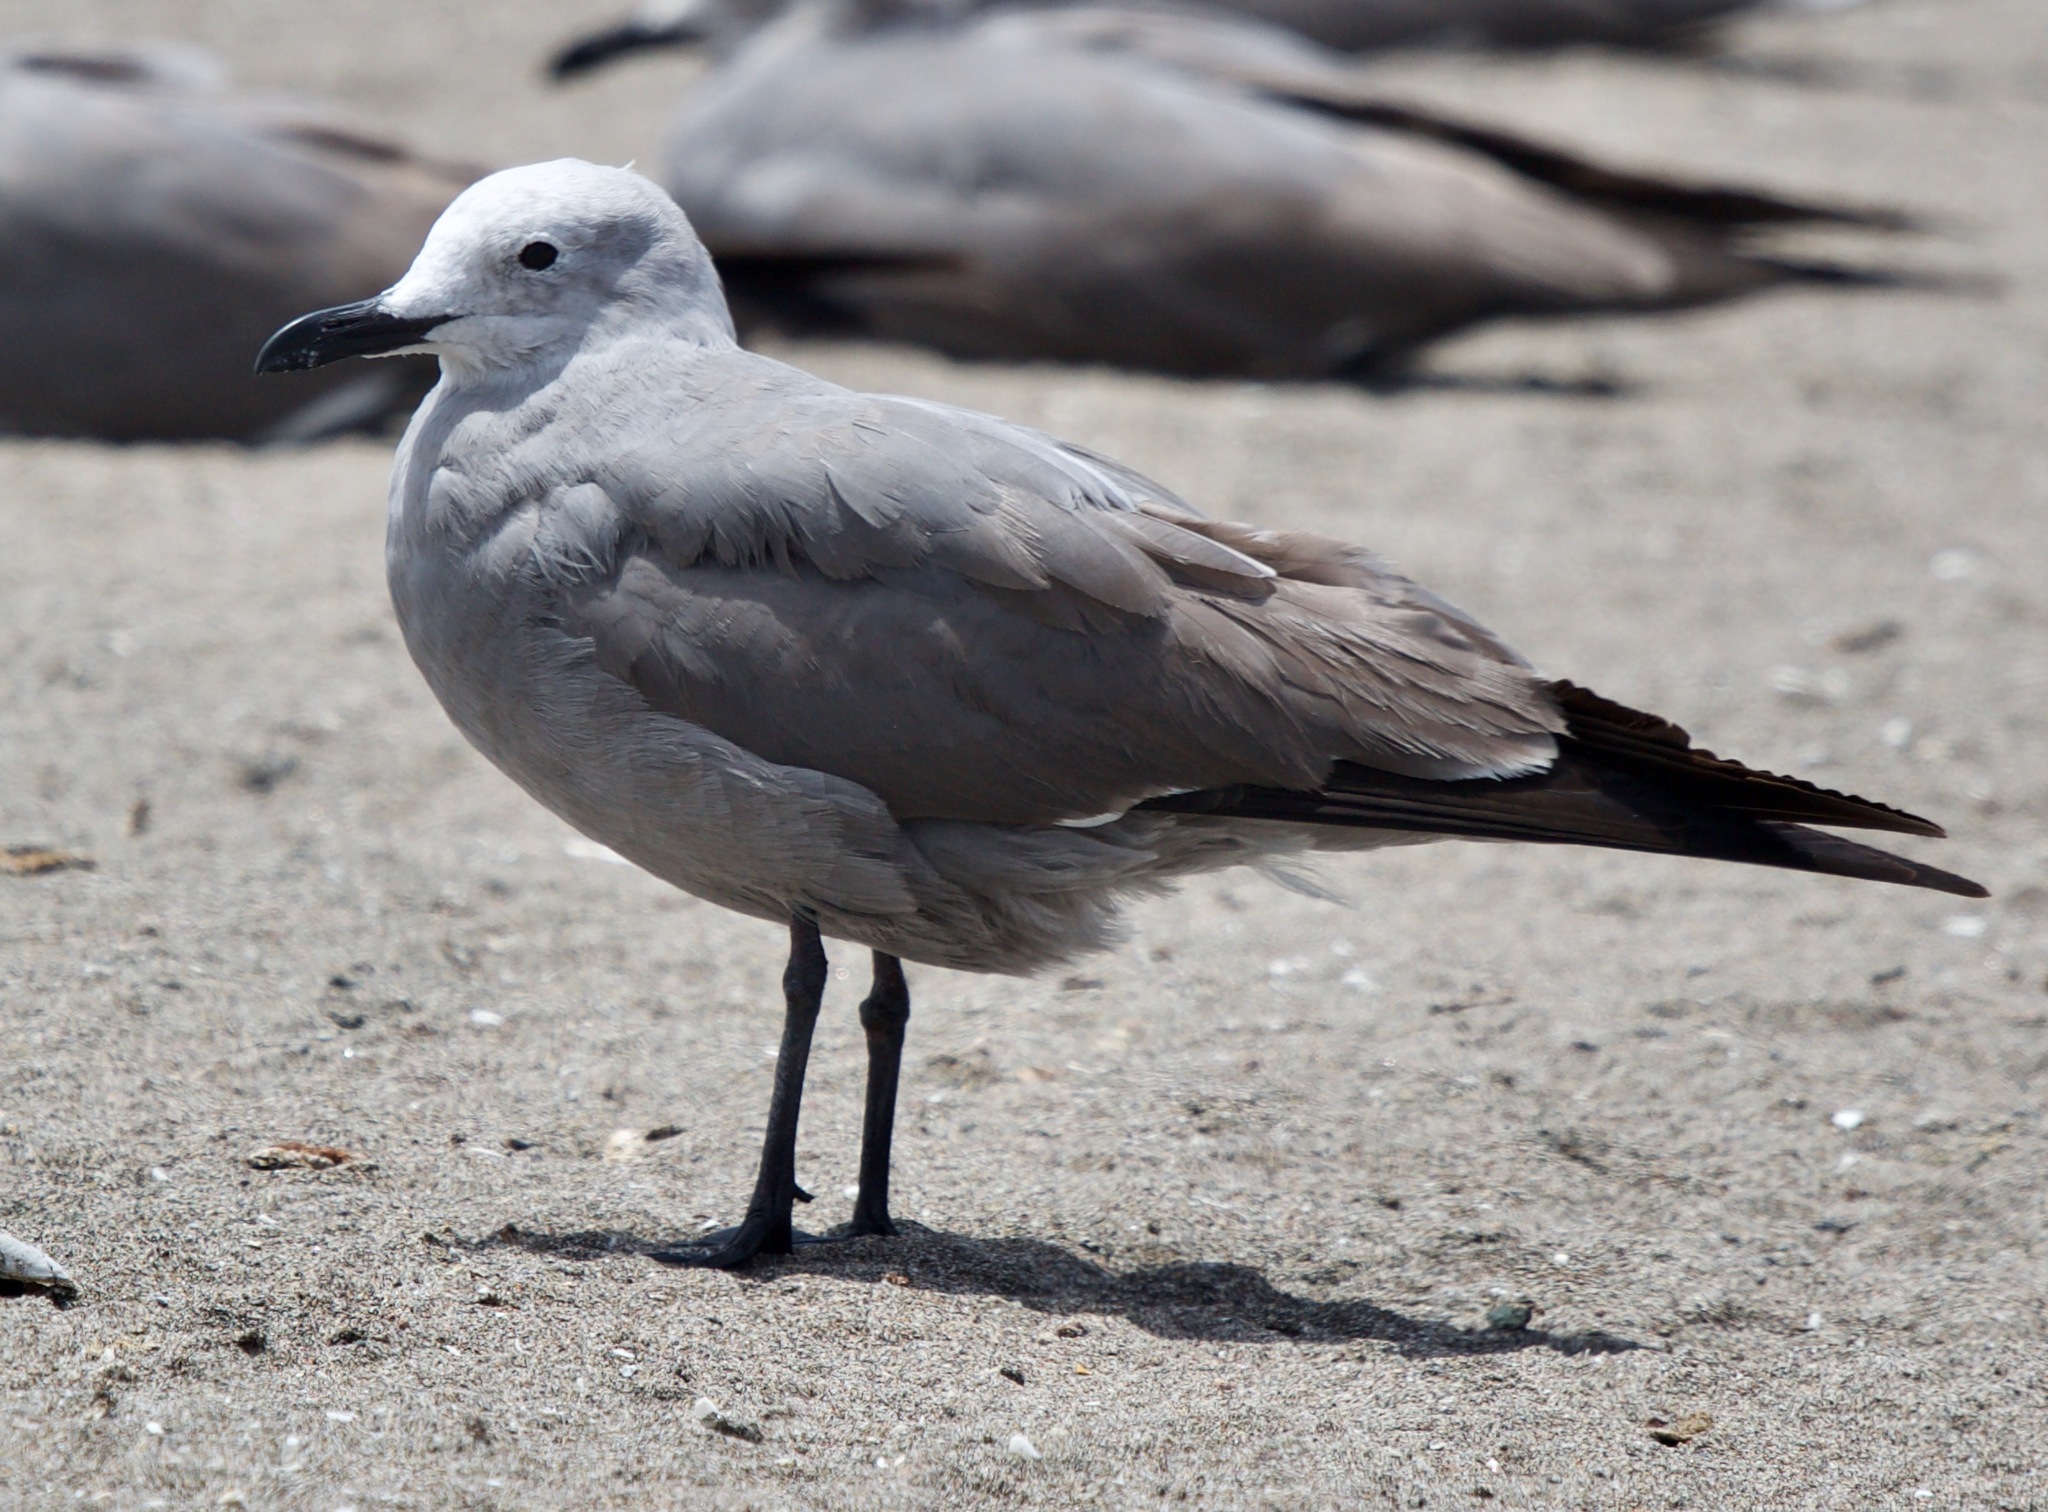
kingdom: Animalia
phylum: Chordata
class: Aves
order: Charadriiformes
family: Laridae
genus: Leucophaeus
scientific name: Leucophaeus modestus
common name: Gray gull
